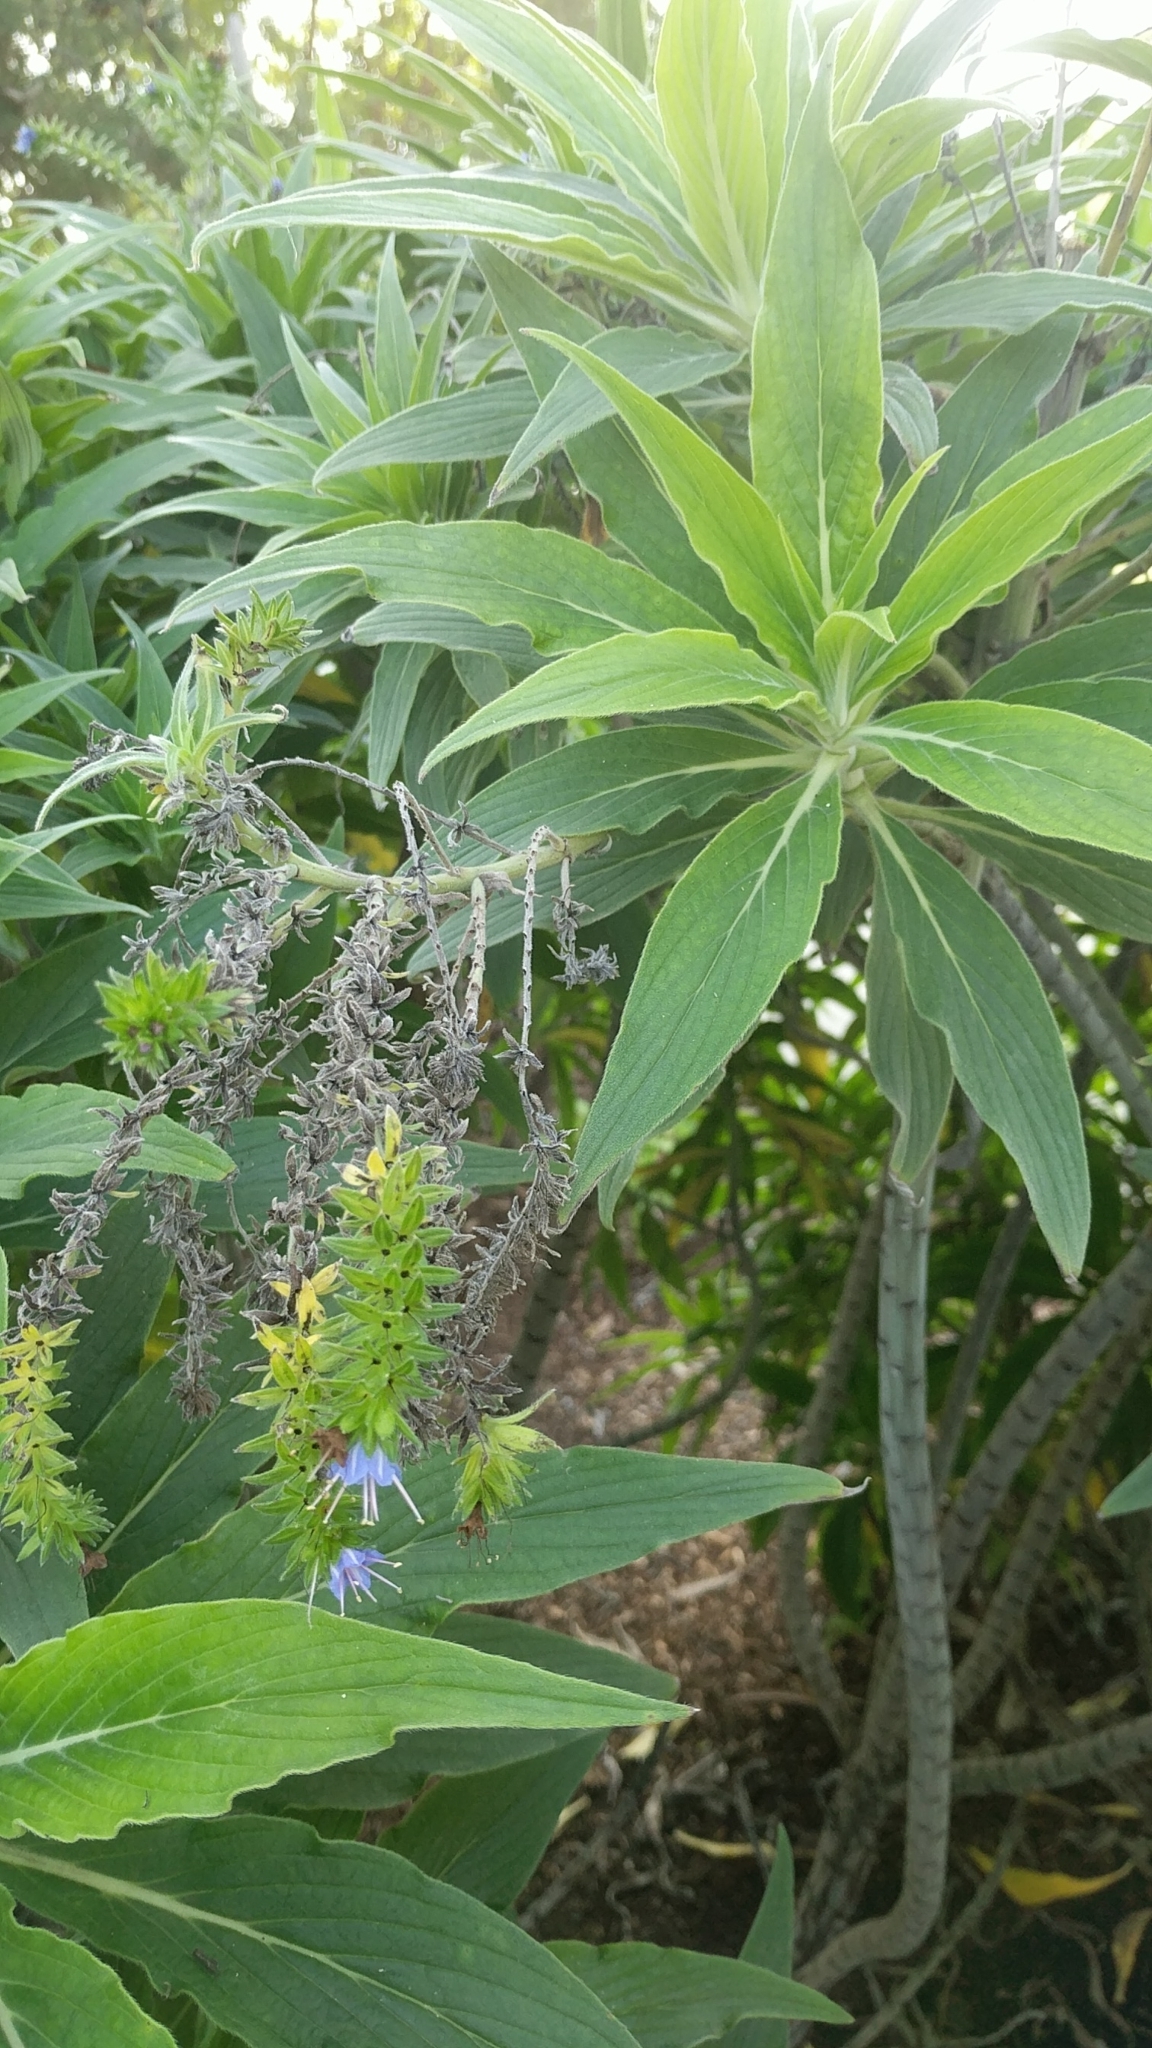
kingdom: Plantae
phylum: Tracheophyta
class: Magnoliopsida
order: Boraginales
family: Boraginaceae
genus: Echium
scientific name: Echium candicans
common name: Pride of madeira
